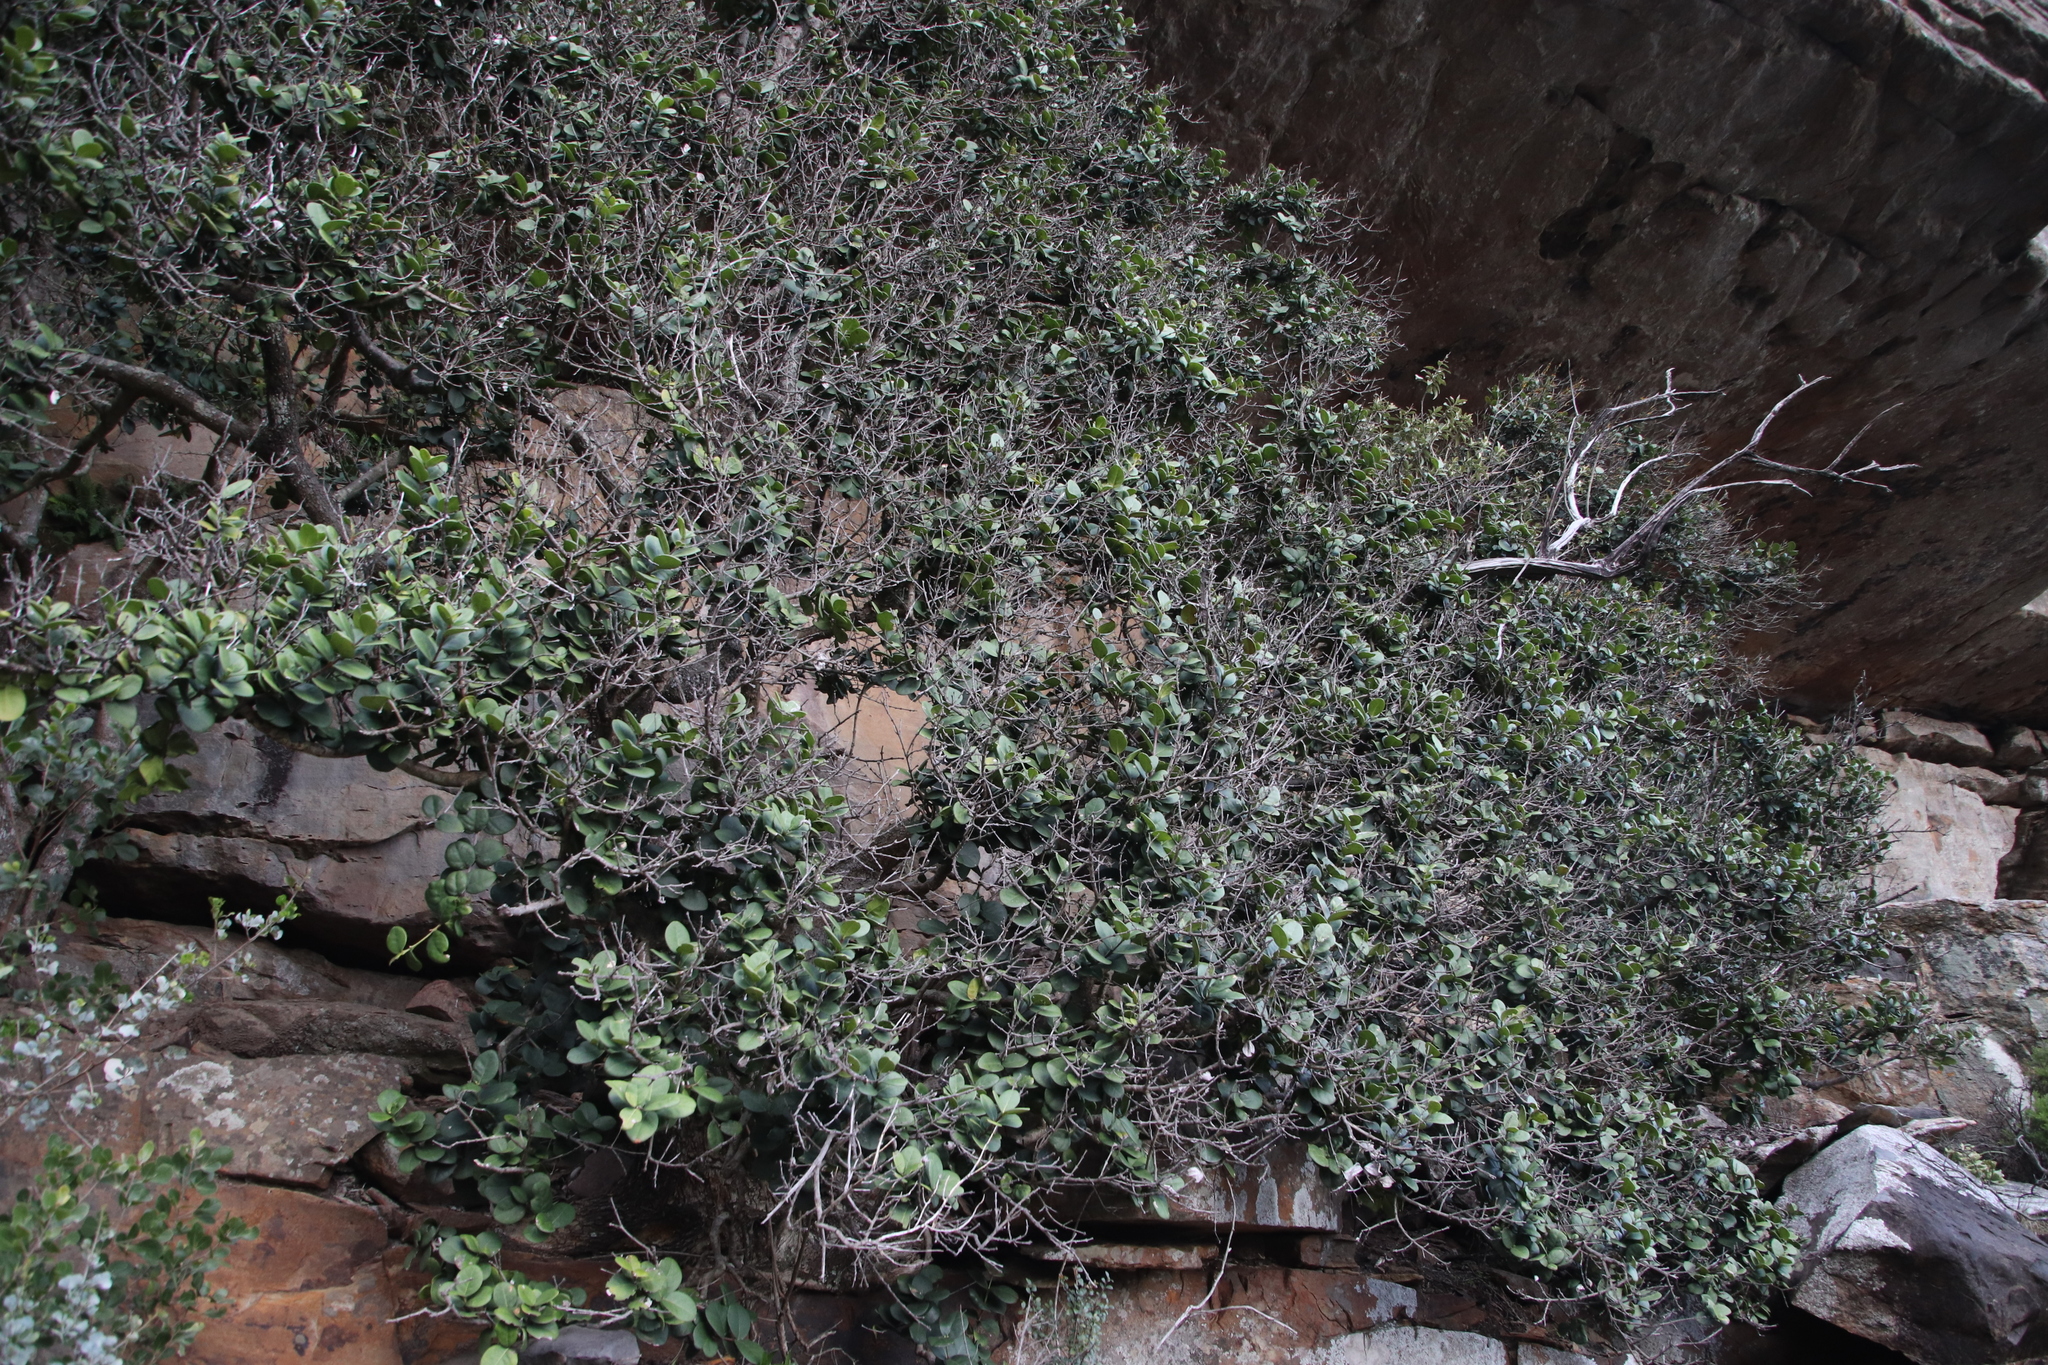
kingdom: Plantae
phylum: Tracheophyta
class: Magnoliopsida
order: Ericales
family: Sapotaceae
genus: Sideroxylon
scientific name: Sideroxylon inerme
